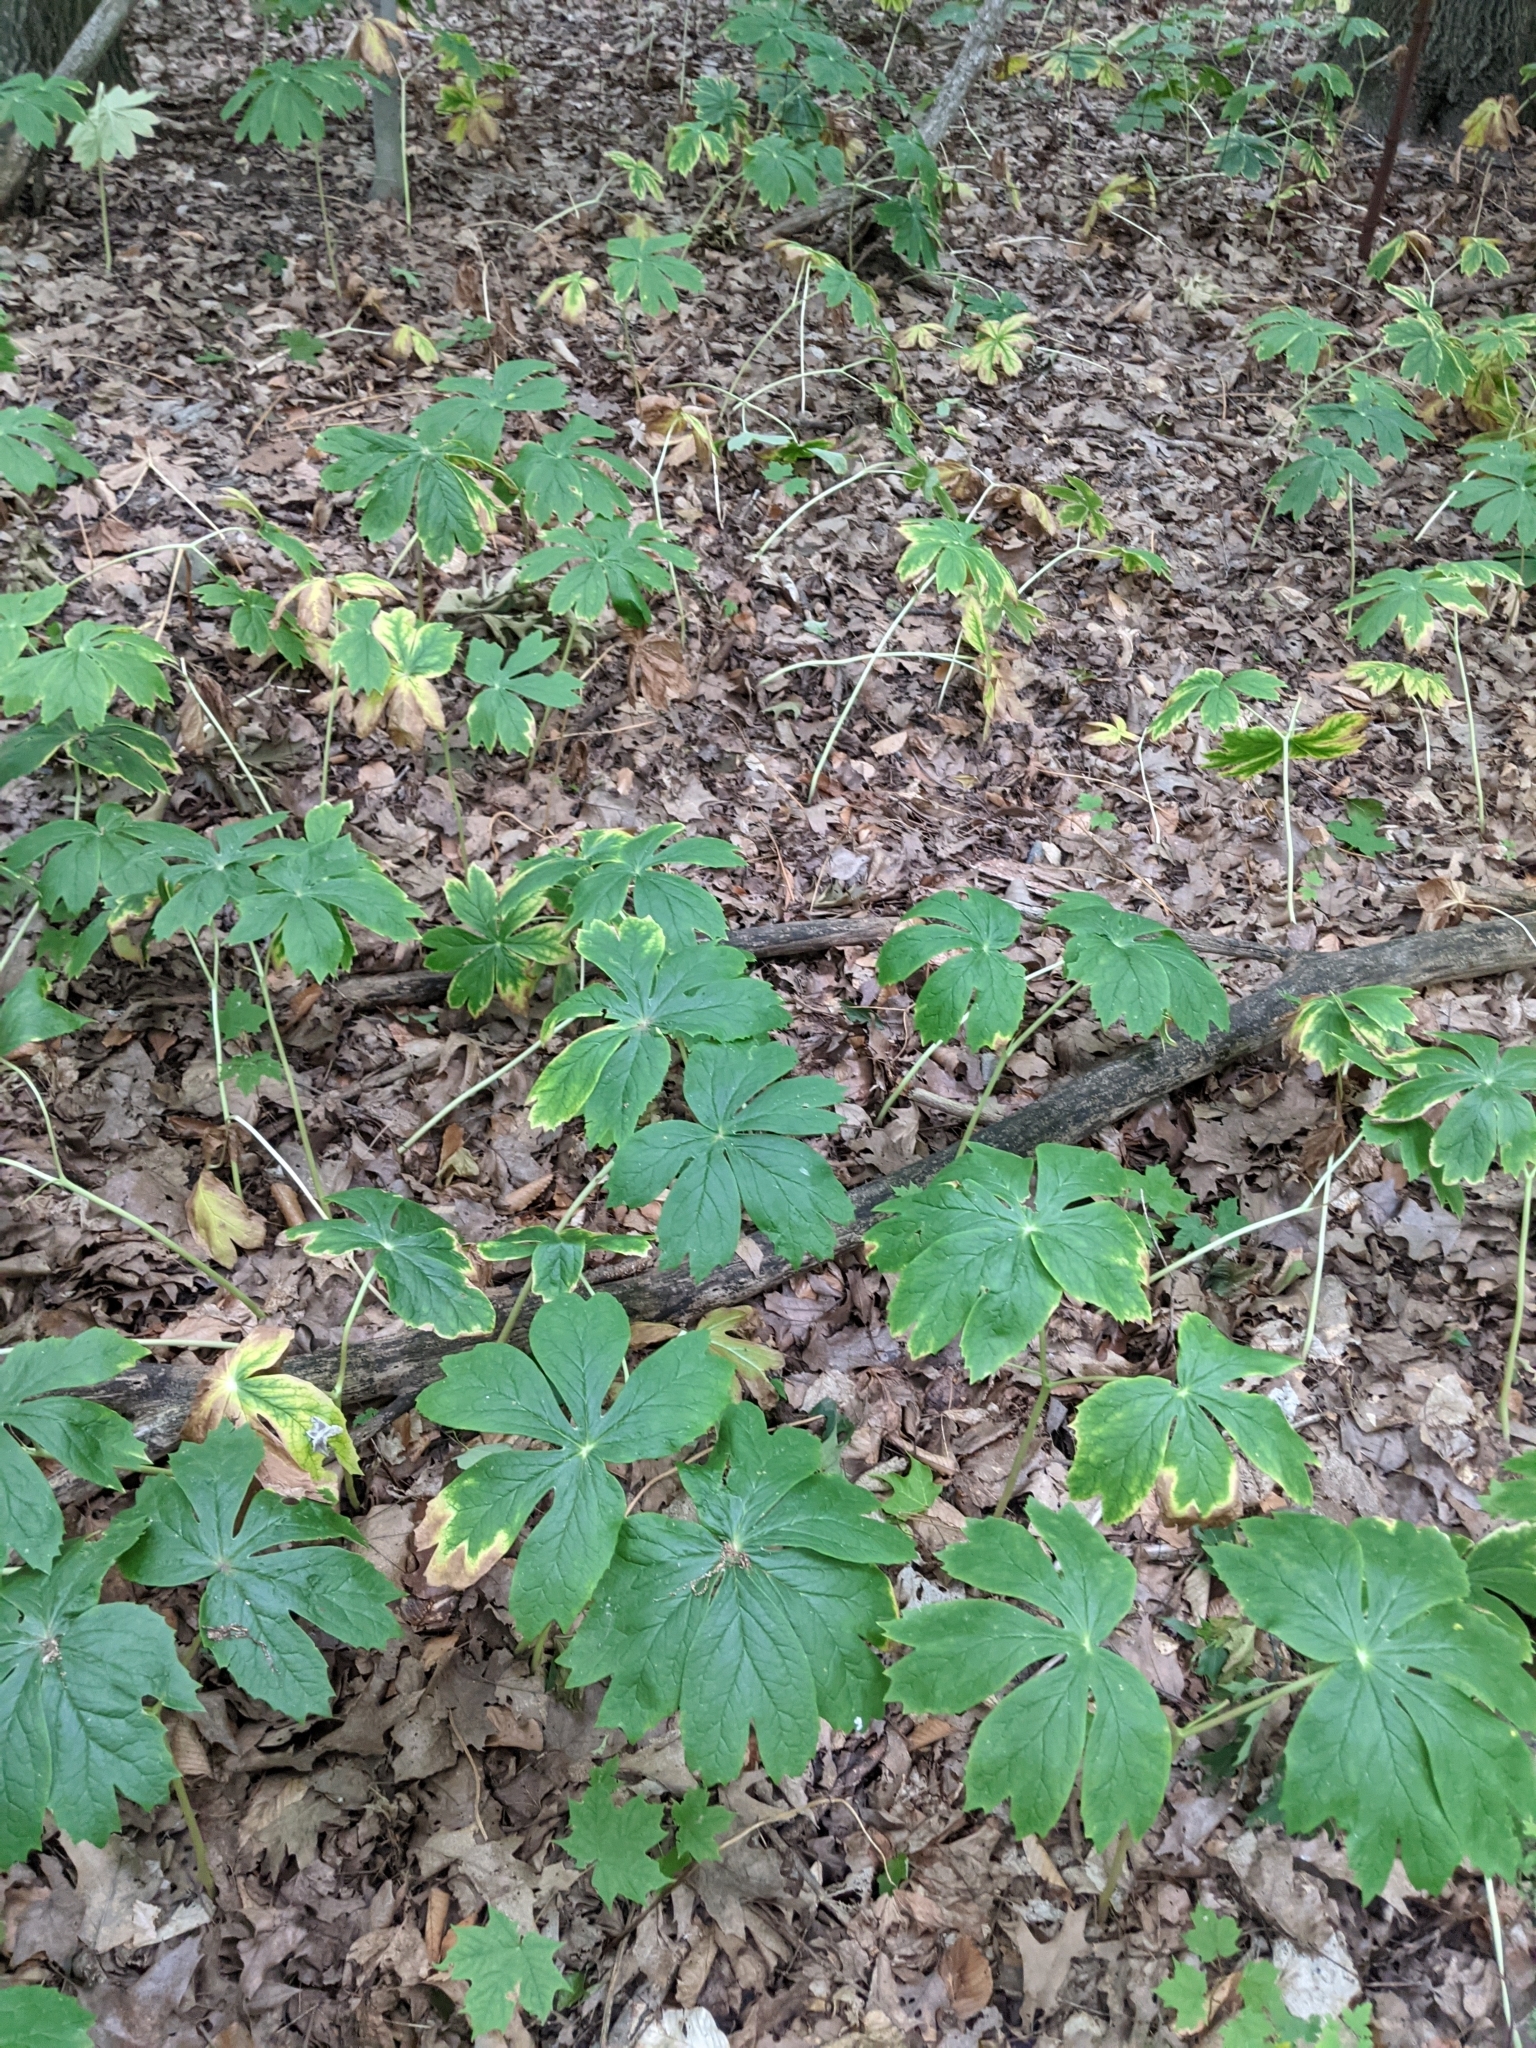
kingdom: Plantae
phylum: Tracheophyta
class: Magnoliopsida
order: Ranunculales
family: Berberidaceae
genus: Podophyllum
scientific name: Podophyllum peltatum
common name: Wild mandrake
